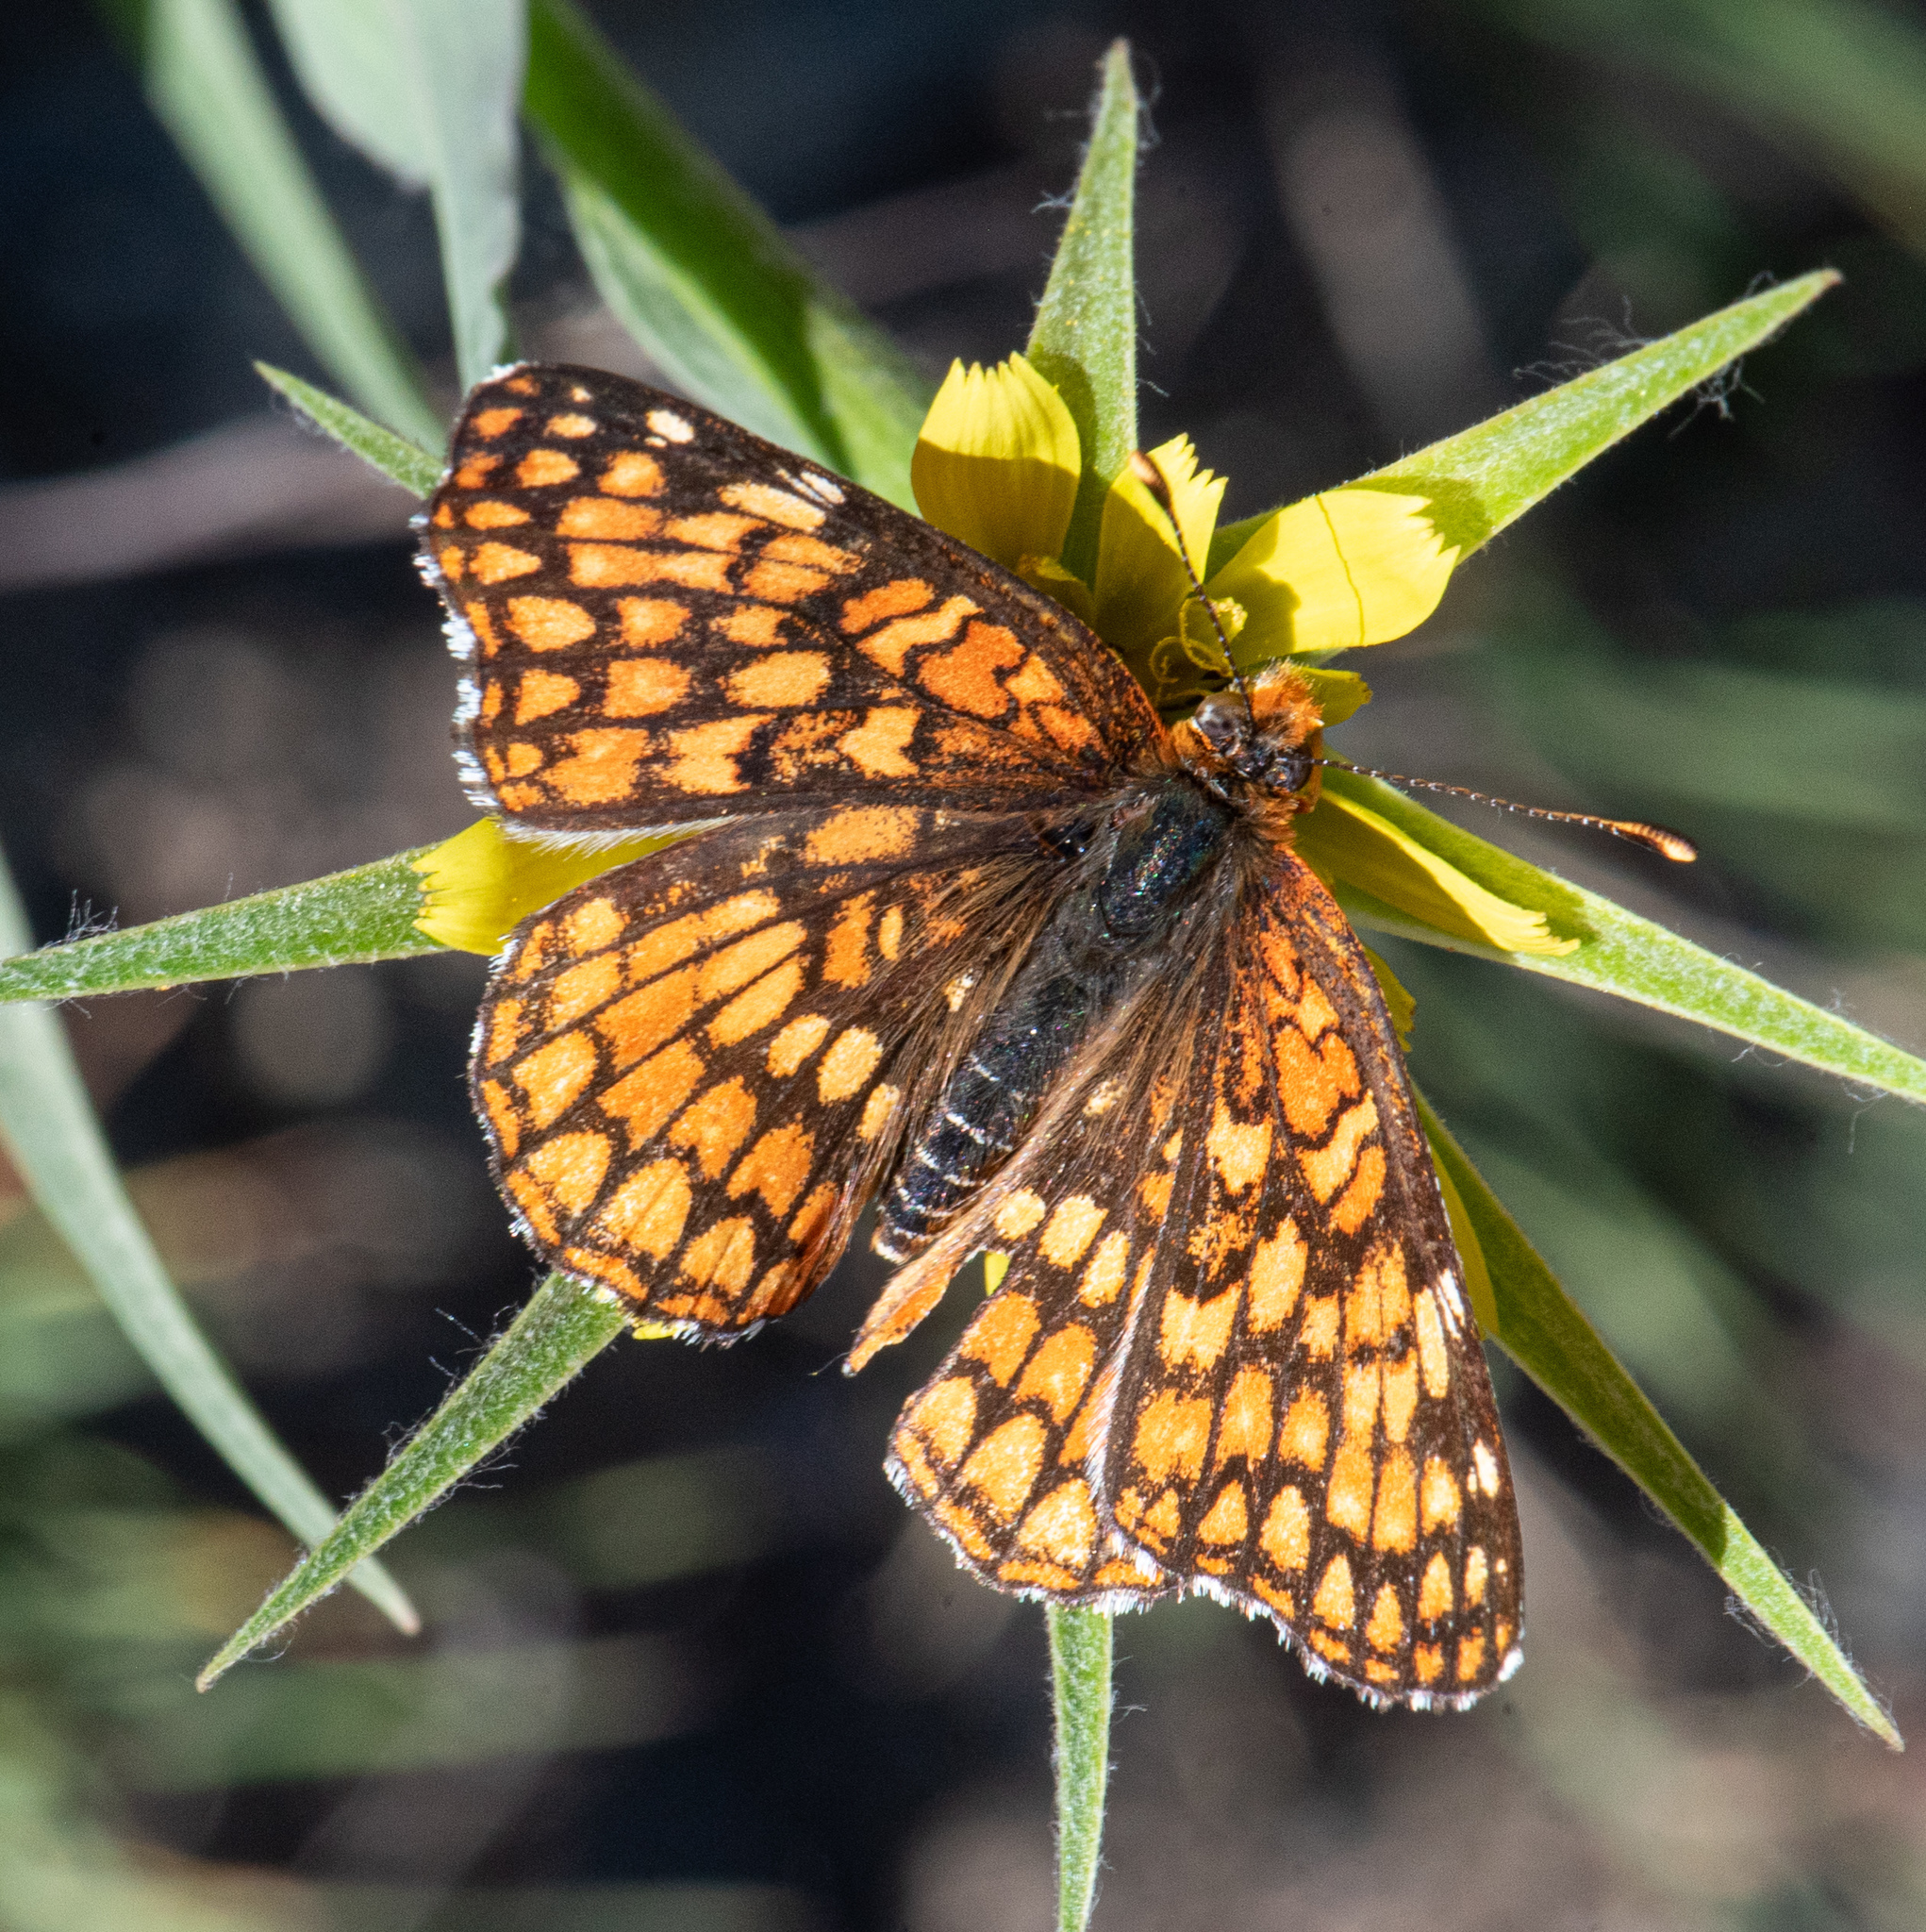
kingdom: Animalia
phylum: Arthropoda
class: Insecta
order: Lepidoptera
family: Nymphalidae
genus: Chlosyne
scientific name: Chlosyne palla
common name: Northern checkerspot
